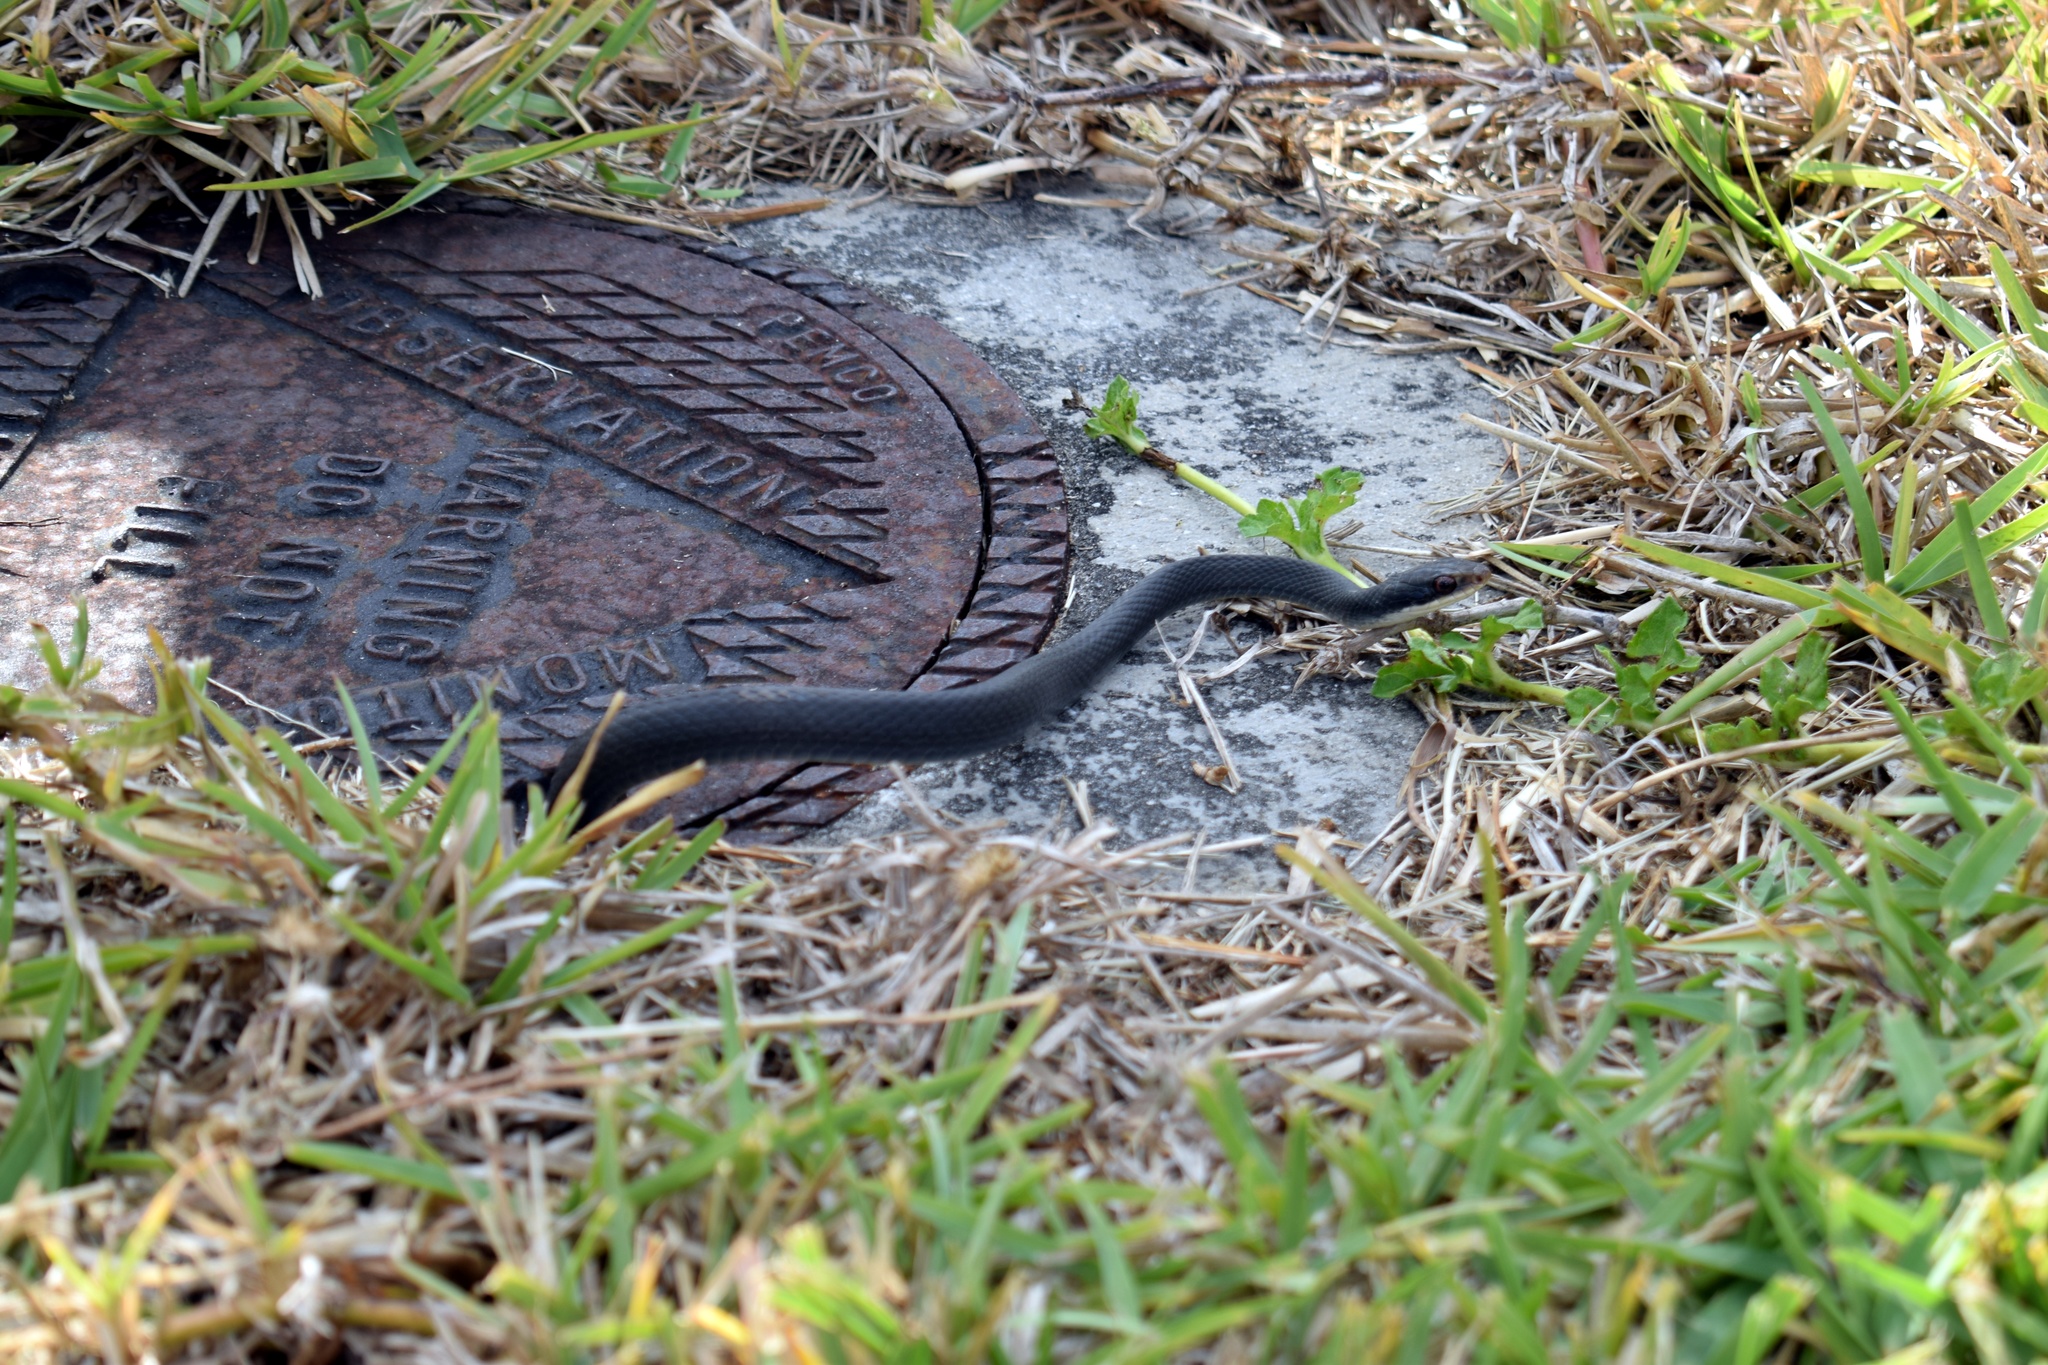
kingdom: Animalia
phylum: Chordata
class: Squamata
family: Colubridae
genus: Coluber
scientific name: Coluber constrictor
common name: Eastern racer
